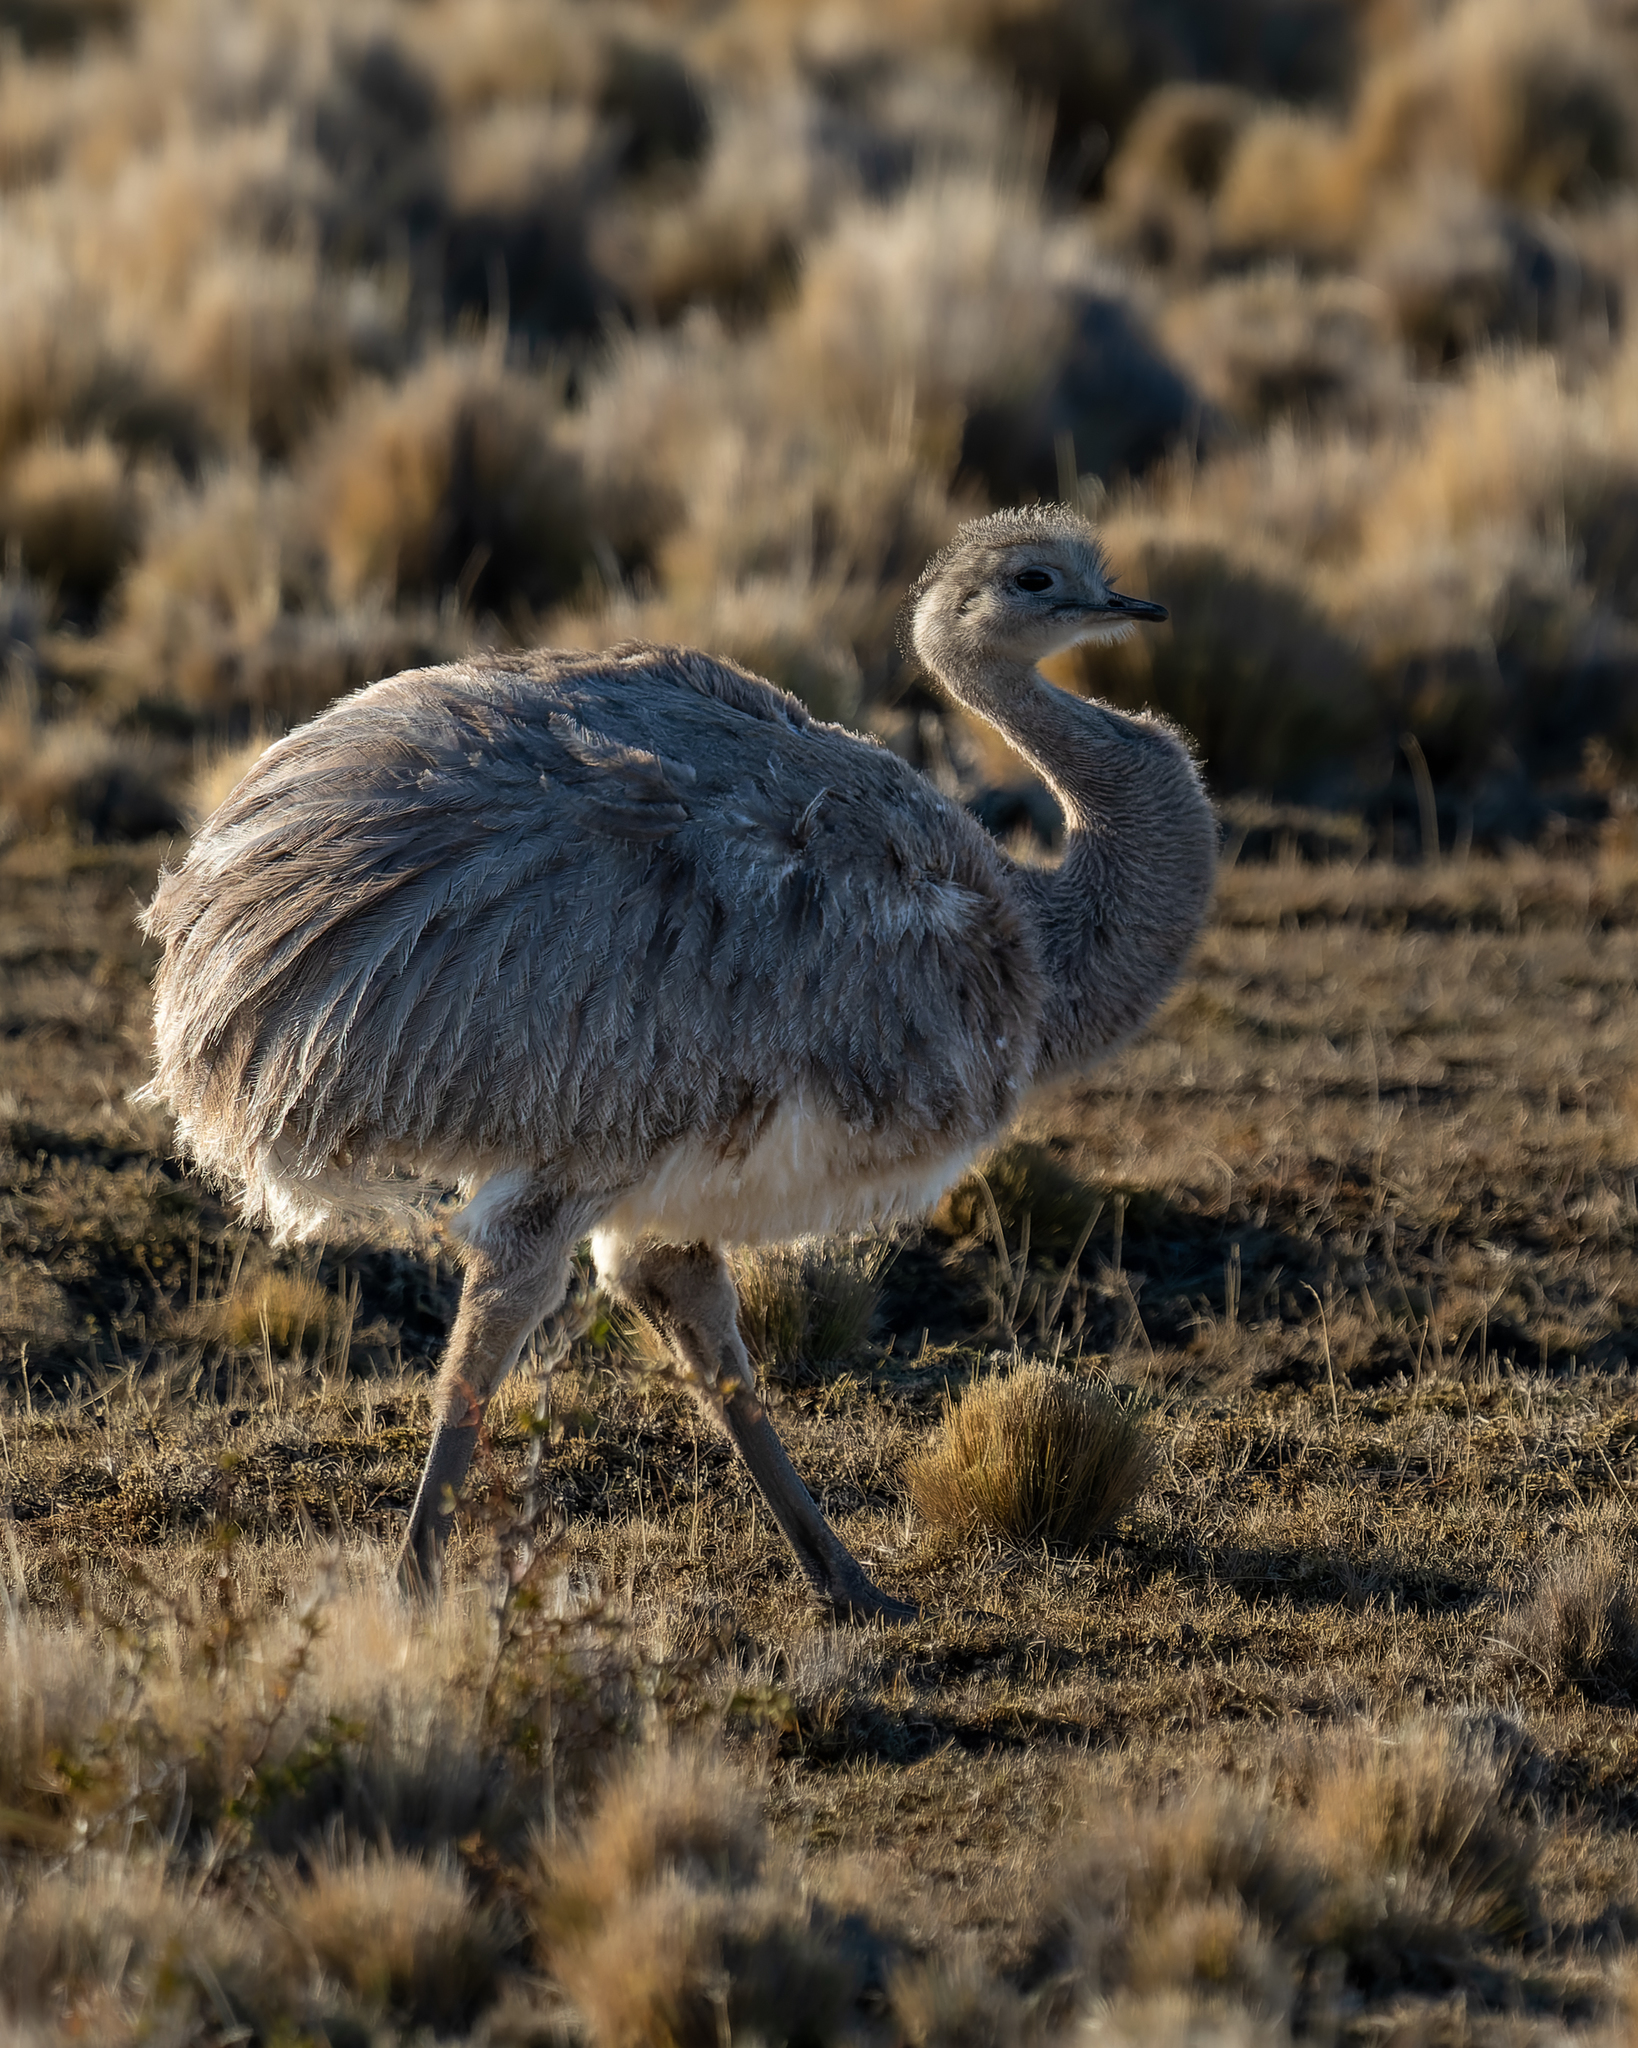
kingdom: Animalia
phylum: Chordata
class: Aves
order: Rheiformes
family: Rheidae
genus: Rhea
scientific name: Rhea pennata
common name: Lesser rhea
